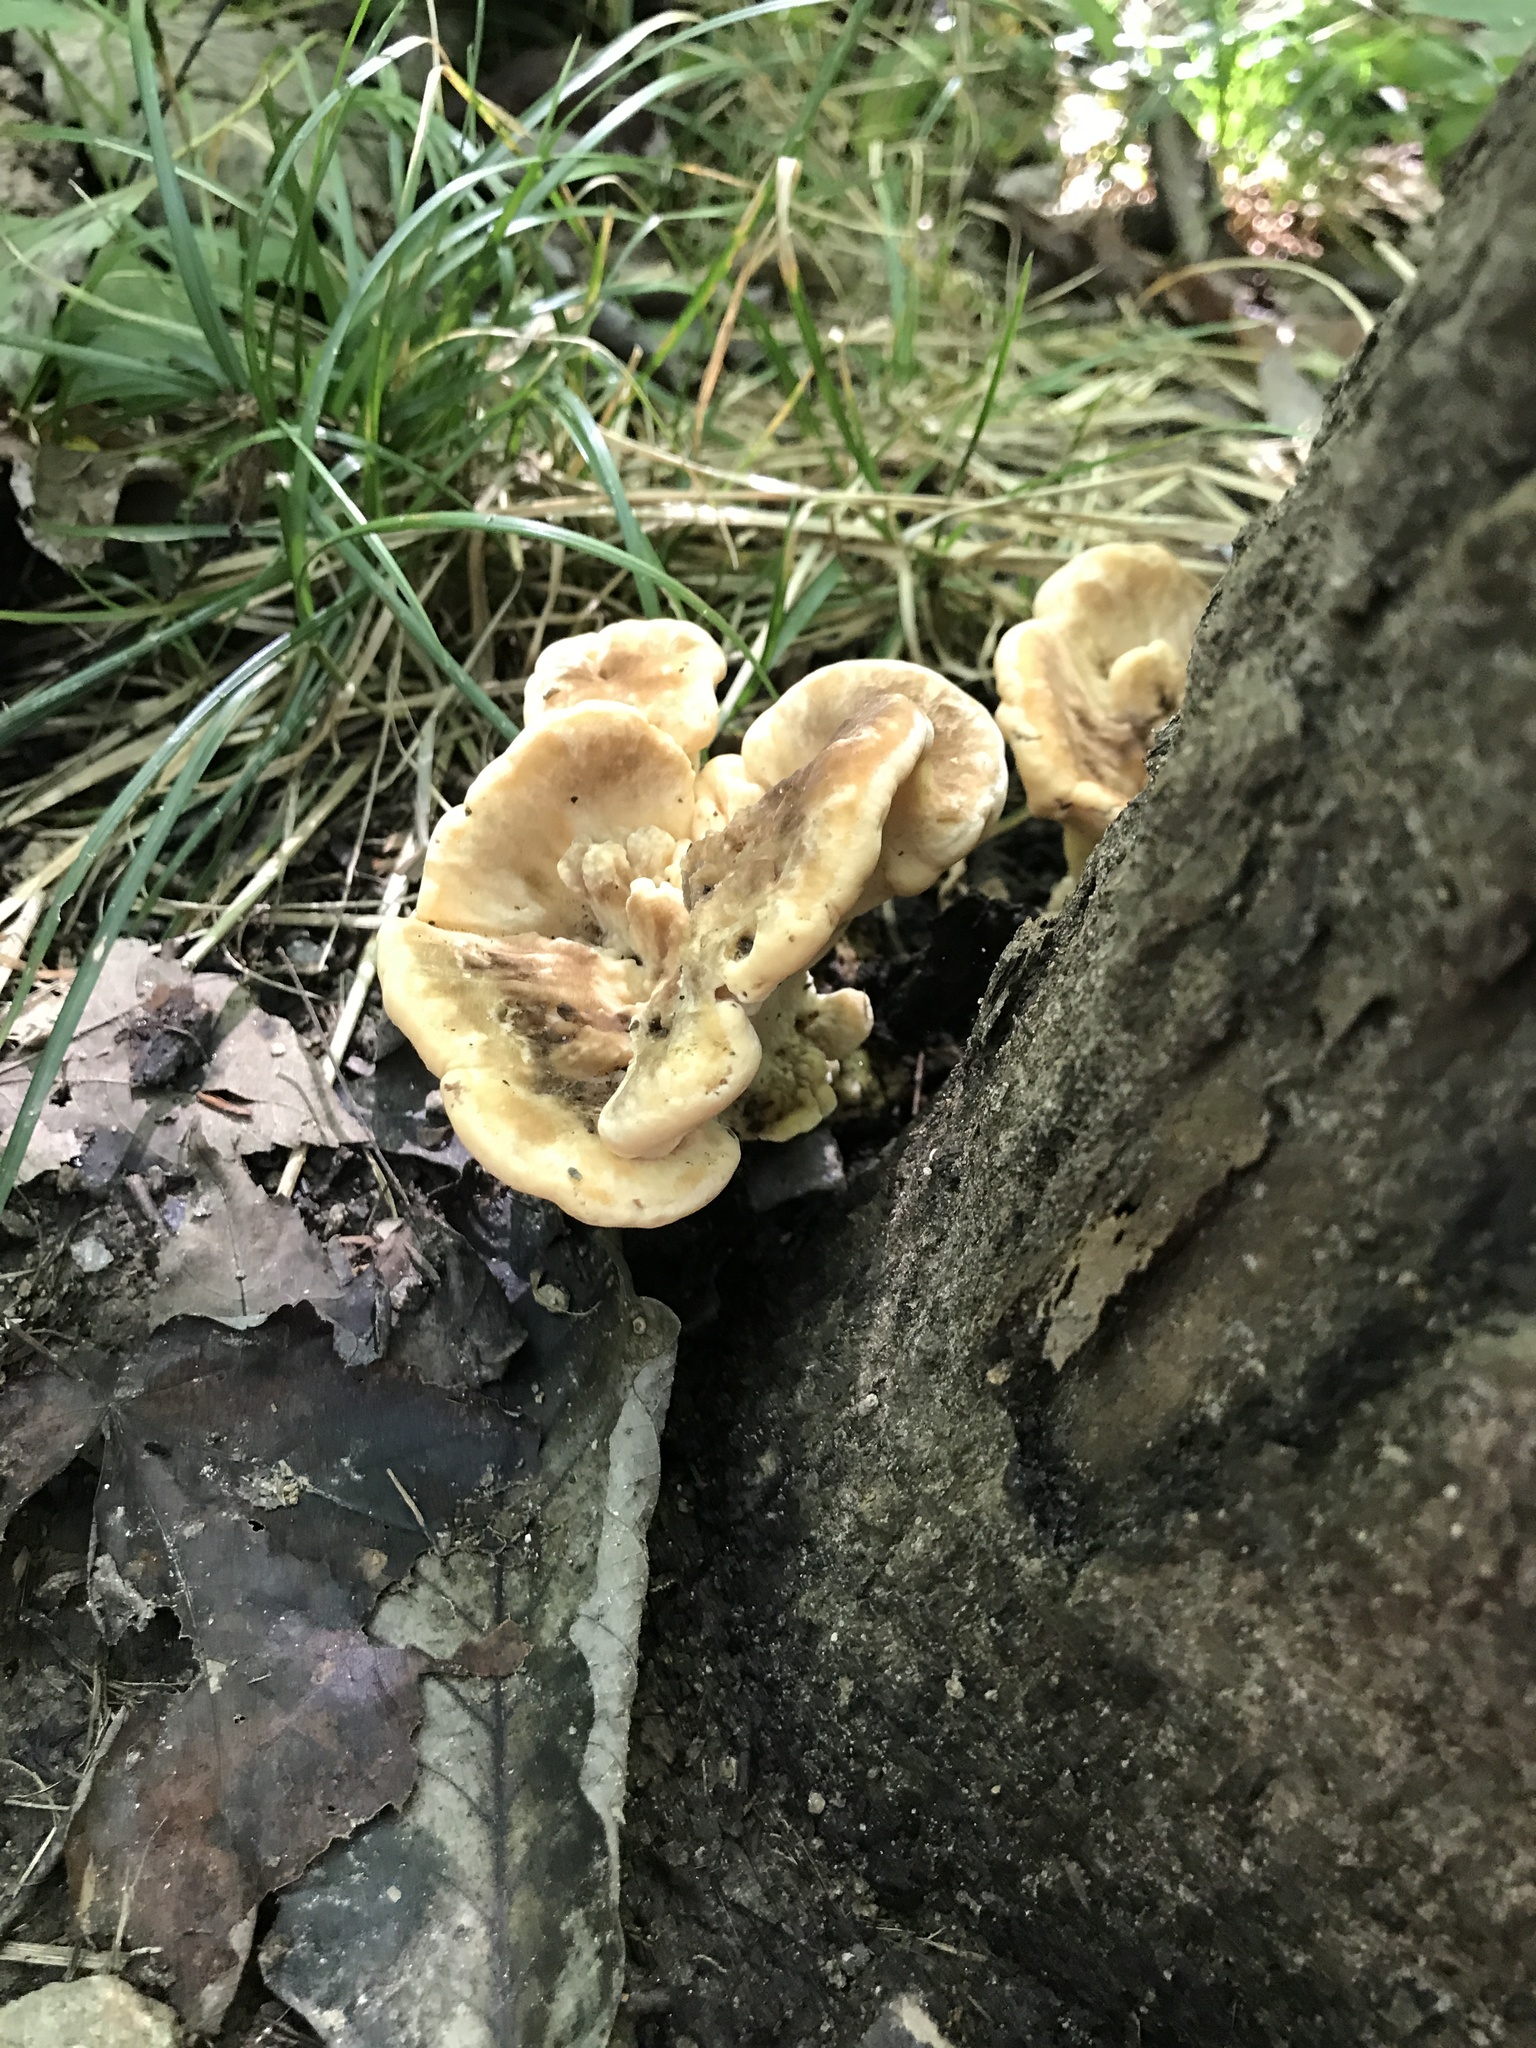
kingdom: Fungi
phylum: Basidiomycota
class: Agaricomycetes
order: Polyporales
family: Meripilaceae
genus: Meripilus
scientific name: Meripilus sumstinei
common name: Black-staining polypore
